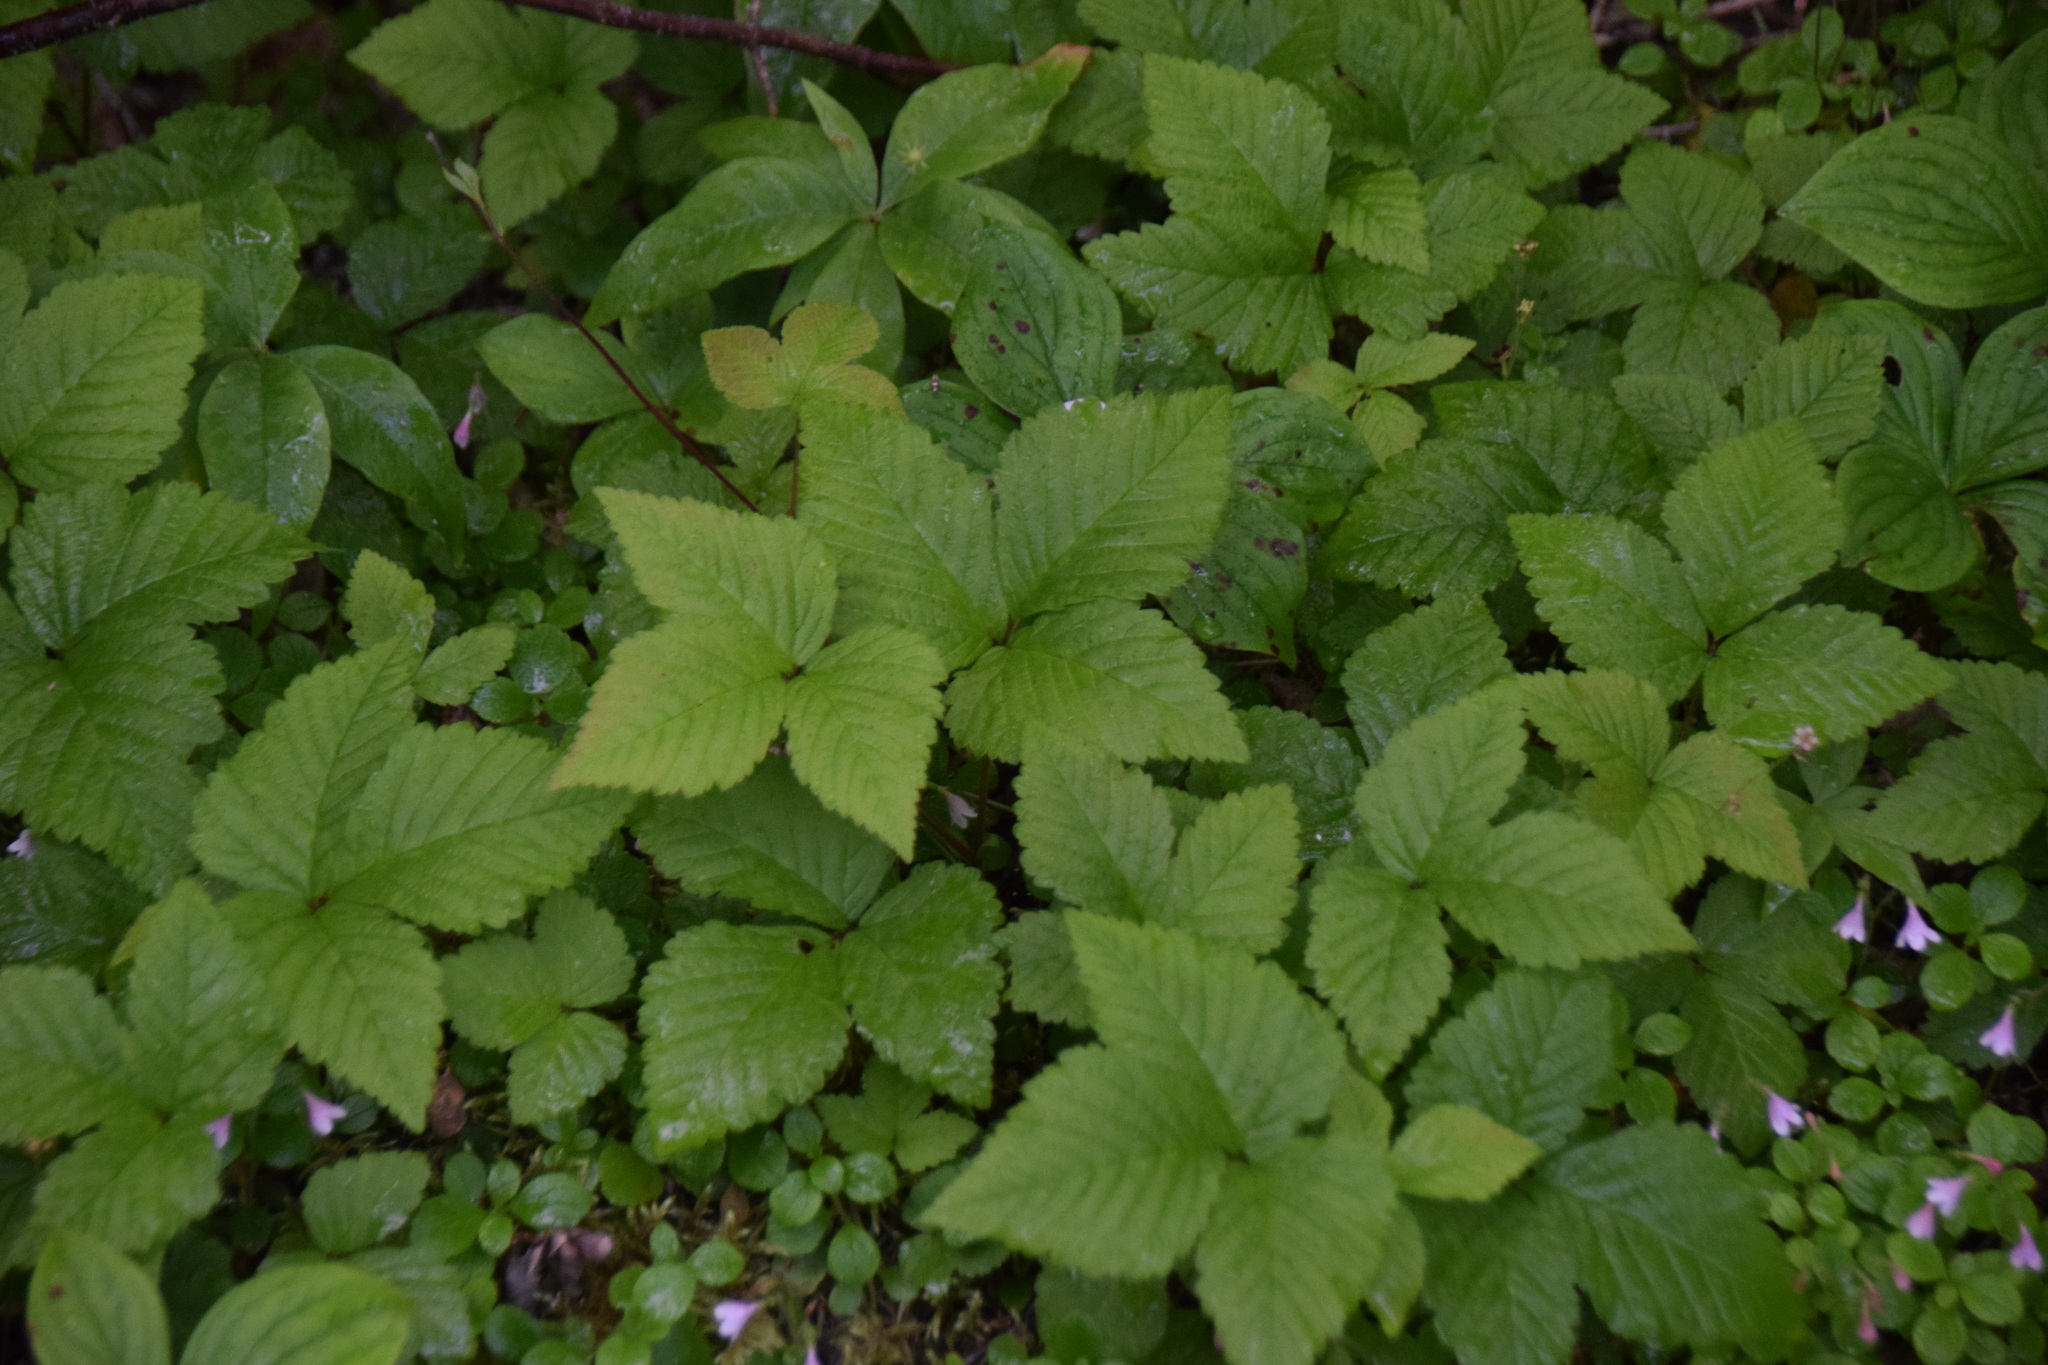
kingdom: Plantae
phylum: Tracheophyta
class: Magnoliopsida
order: Rosales
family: Rosaceae
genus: Rubus
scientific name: Rubus pubescens
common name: Dwarf raspberry
